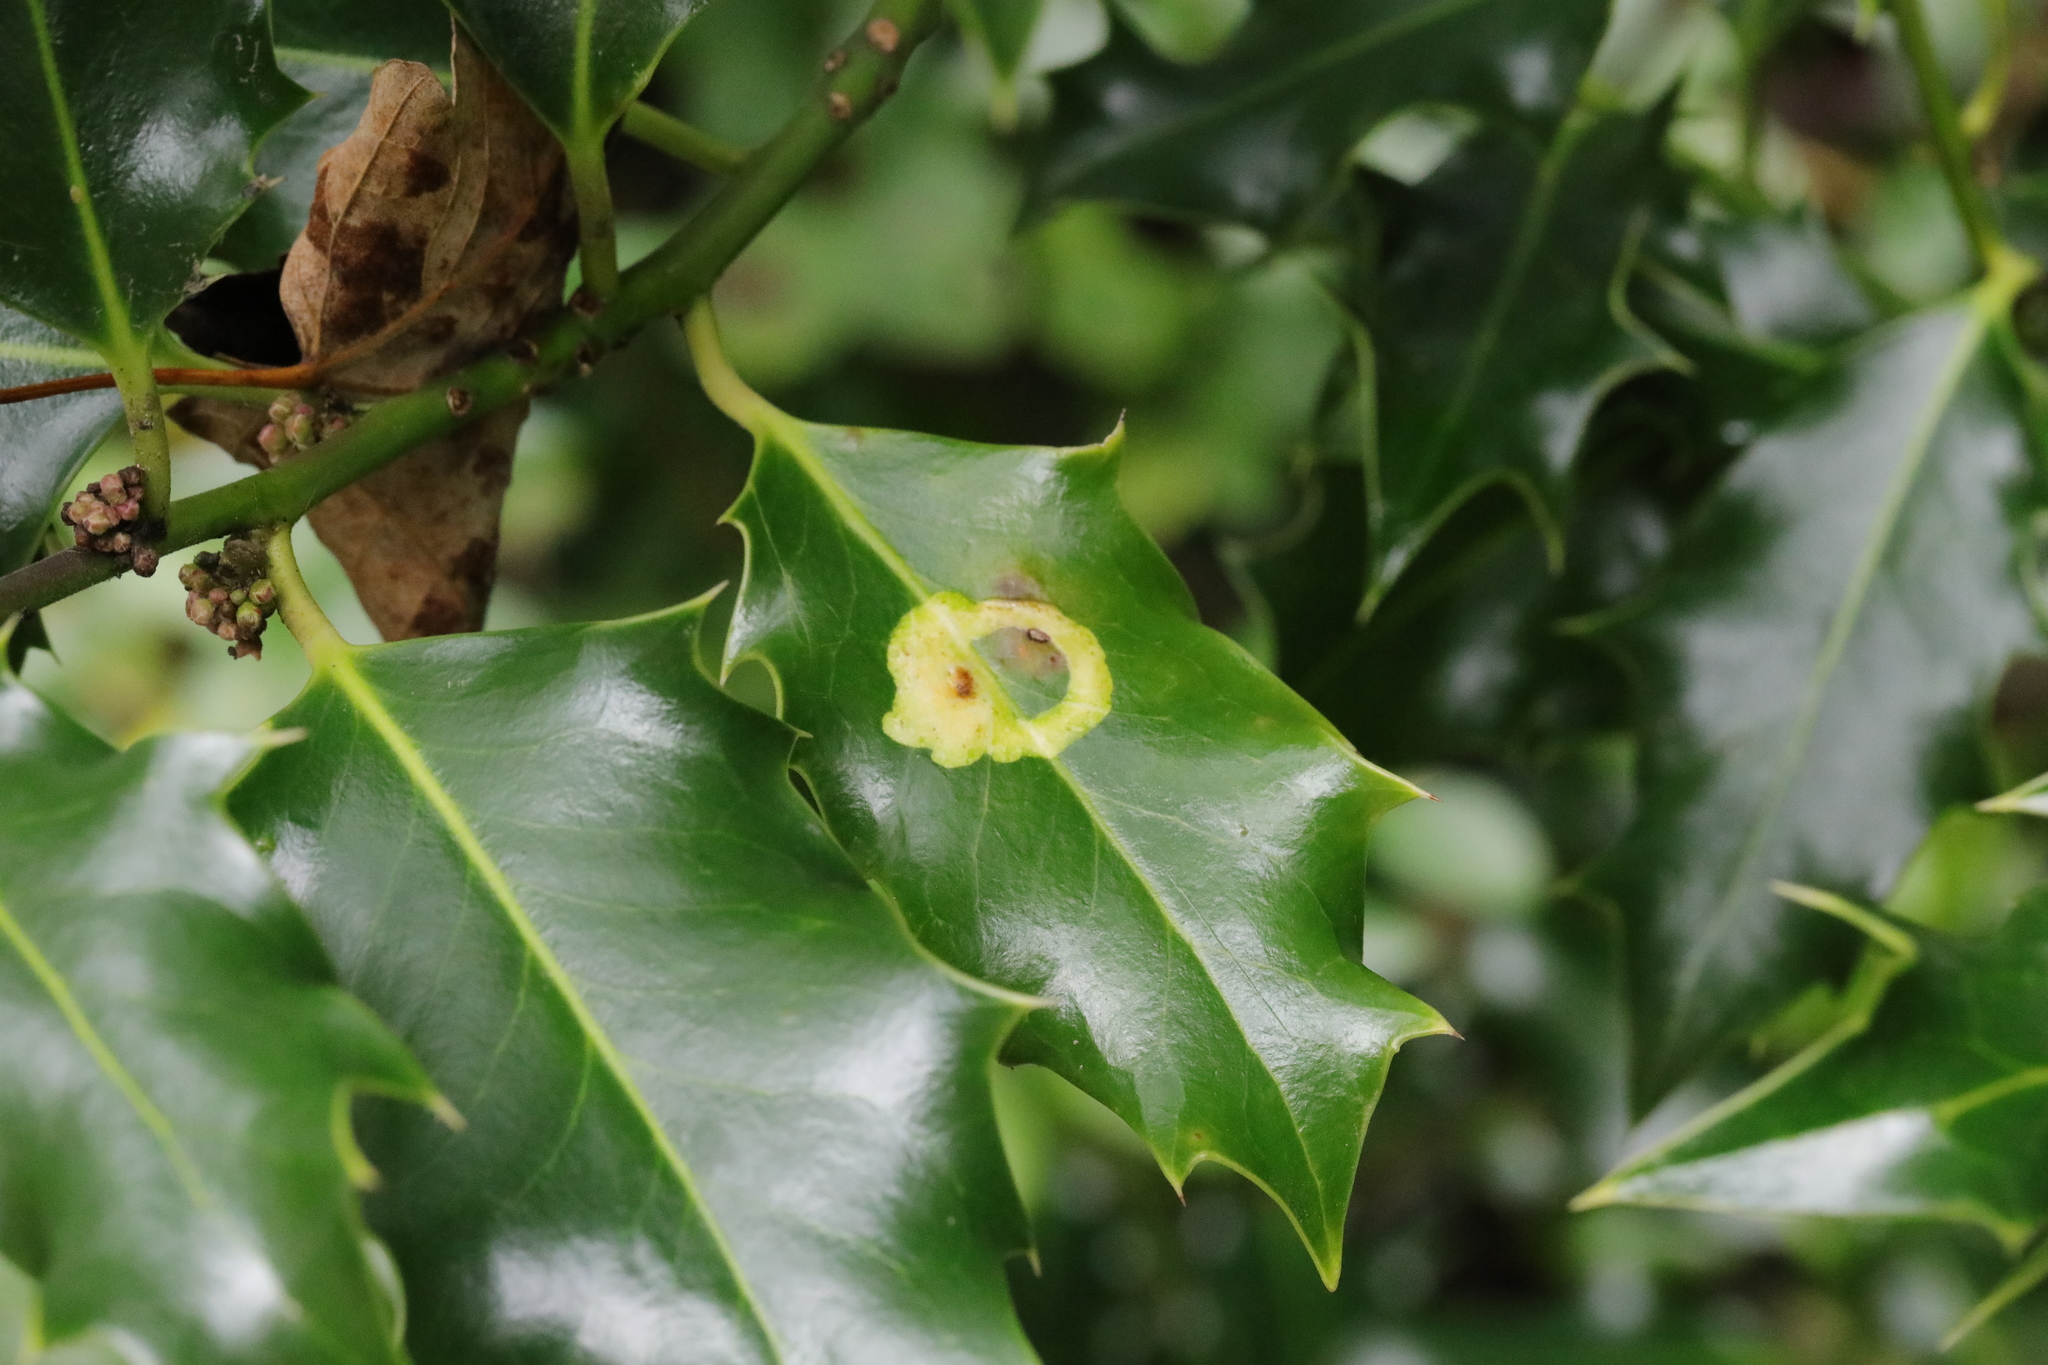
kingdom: Animalia
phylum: Arthropoda
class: Insecta
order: Diptera
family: Agromyzidae
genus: Phytomyza
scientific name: Phytomyza ilicis
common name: Holly leafminer
